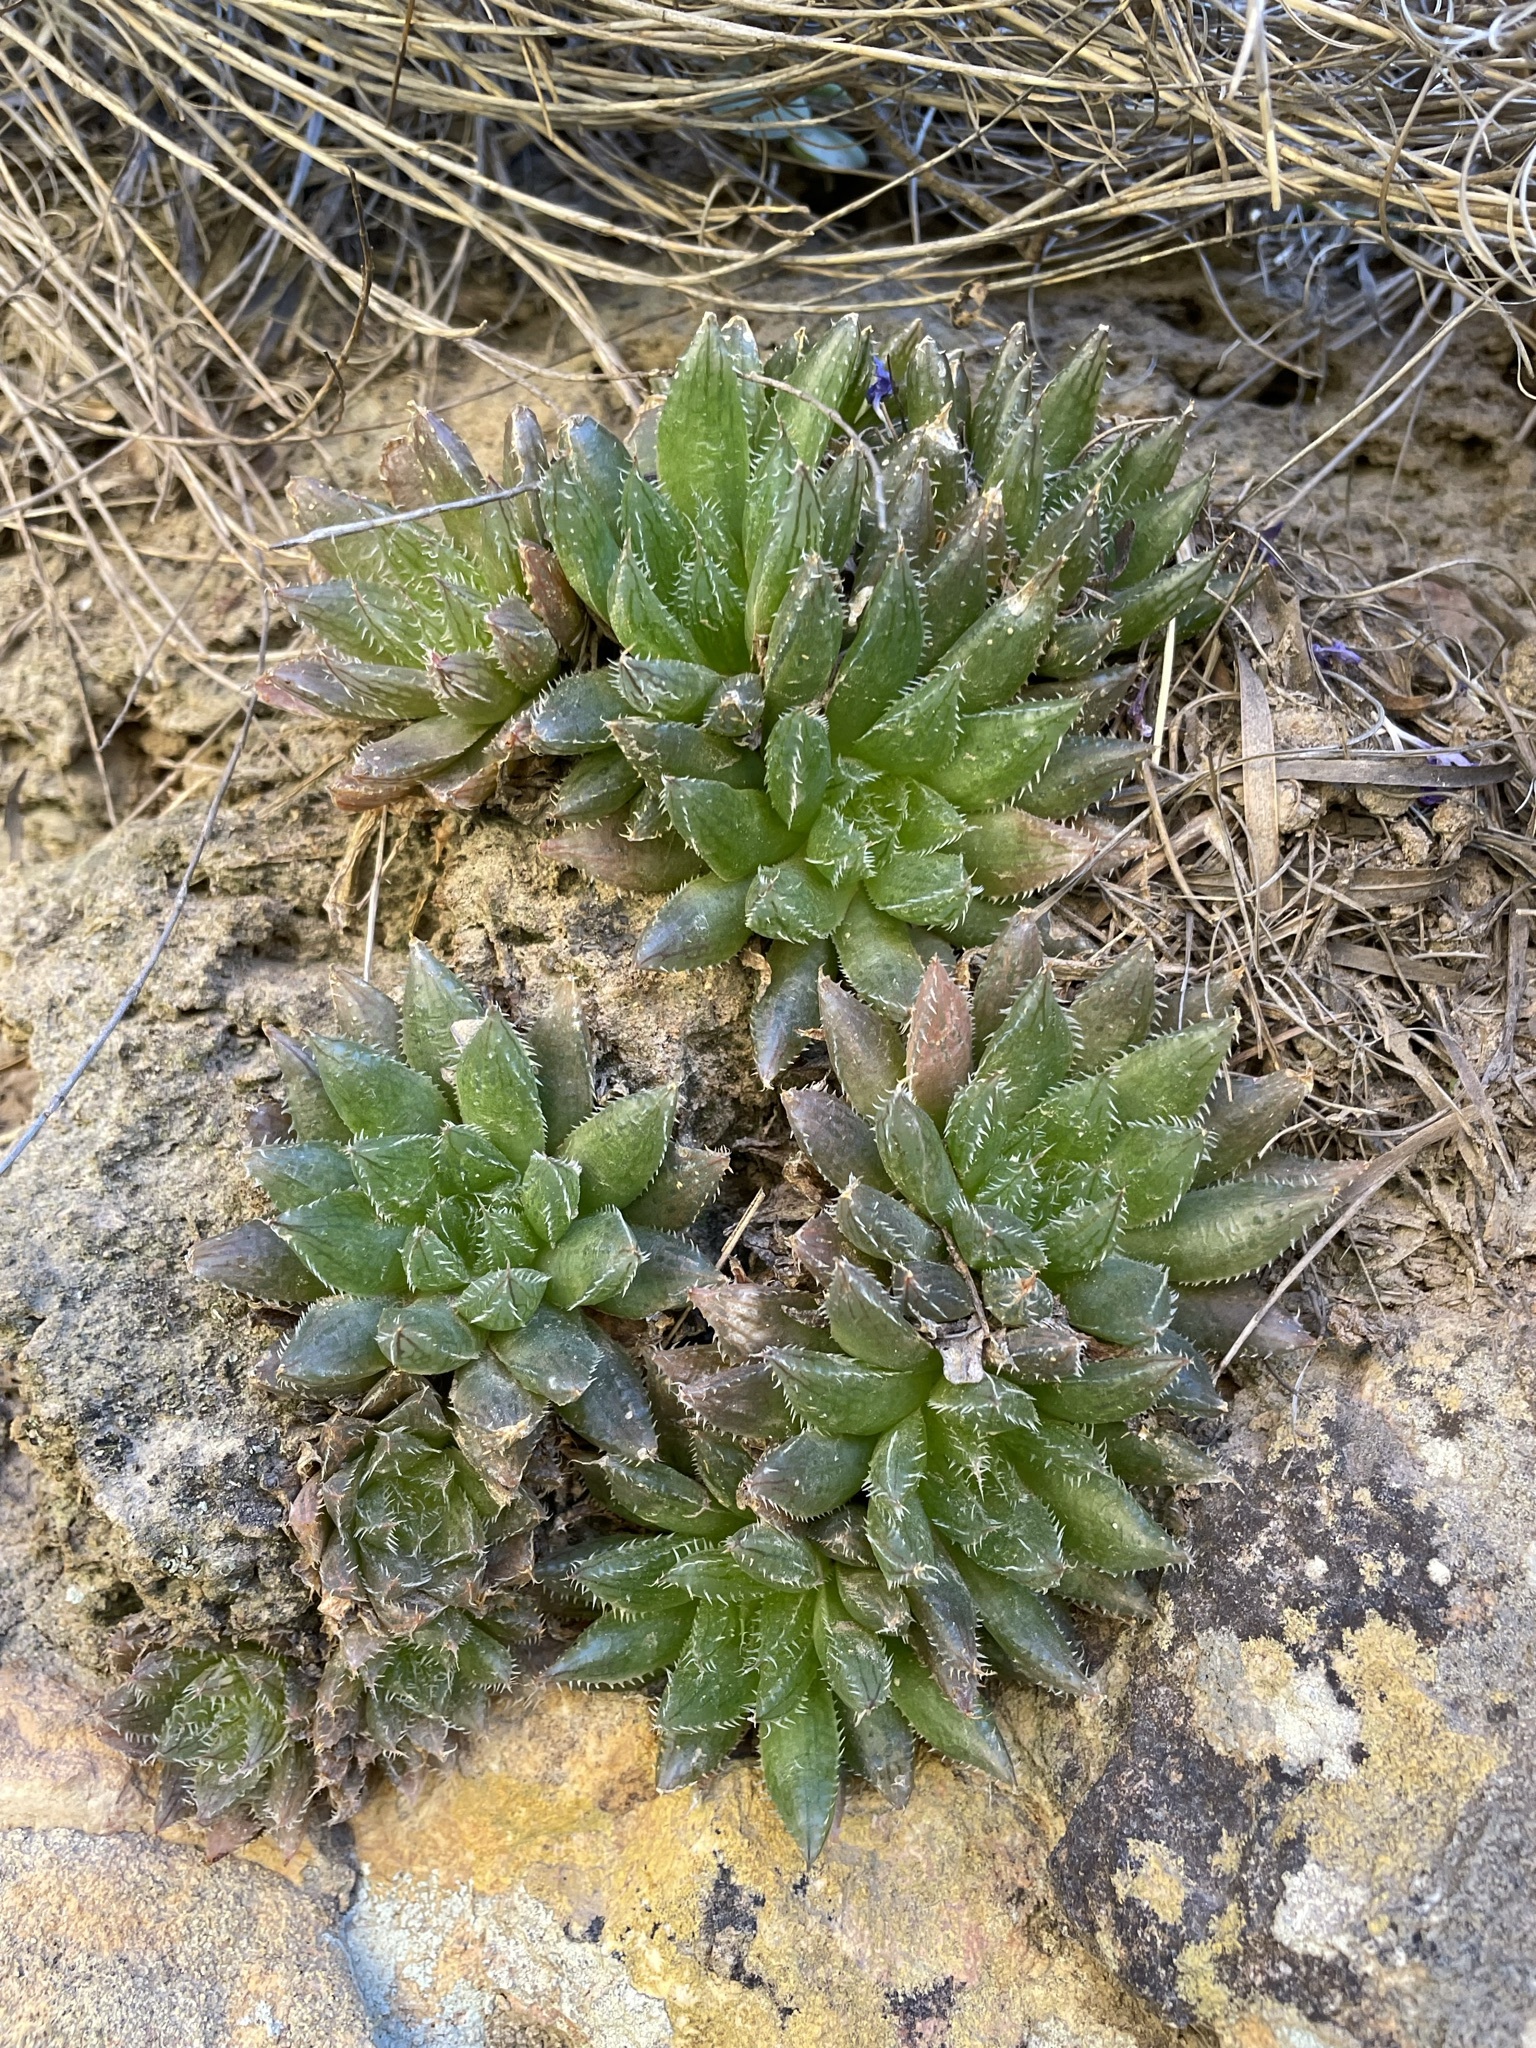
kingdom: Plantae
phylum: Tracheophyta
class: Liliopsida
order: Asparagales
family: Asphodelaceae
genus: Haworthia
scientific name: Haworthia mucronata
